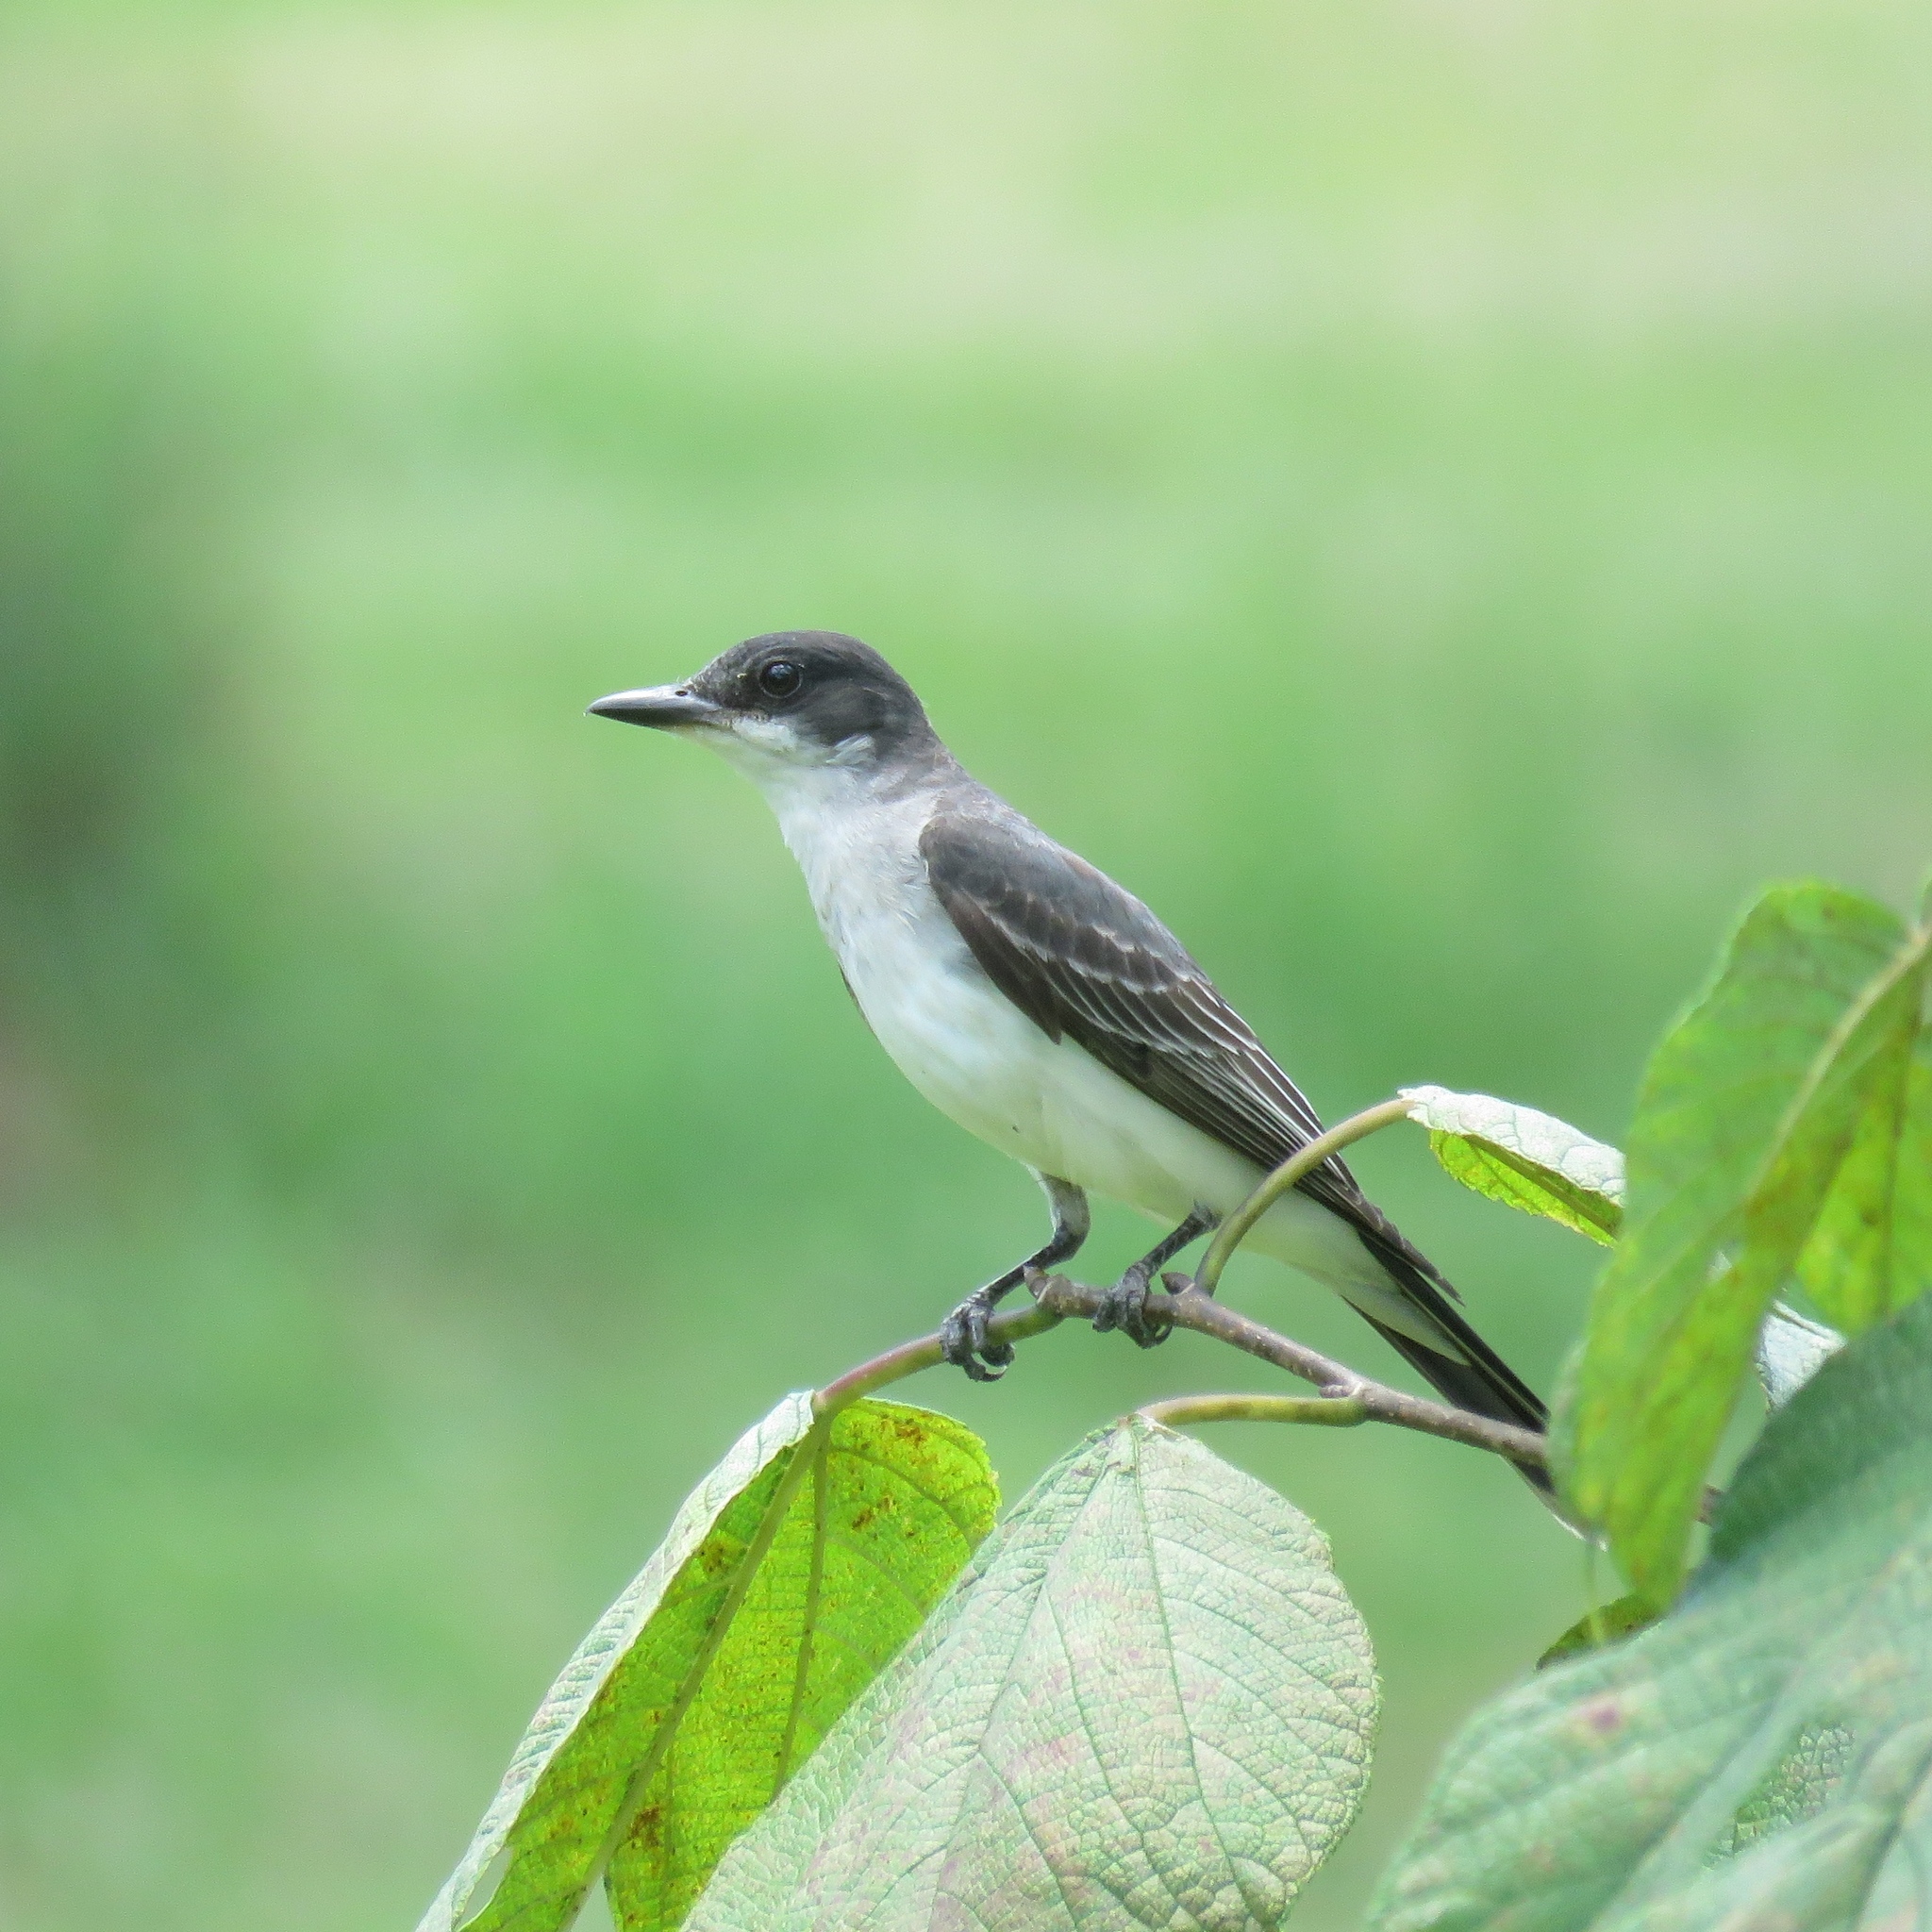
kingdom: Animalia
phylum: Chordata
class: Aves
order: Passeriformes
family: Tyrannidae
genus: Tyrannus
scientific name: Tyrannus tyrannus
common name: Eastern kingbird
